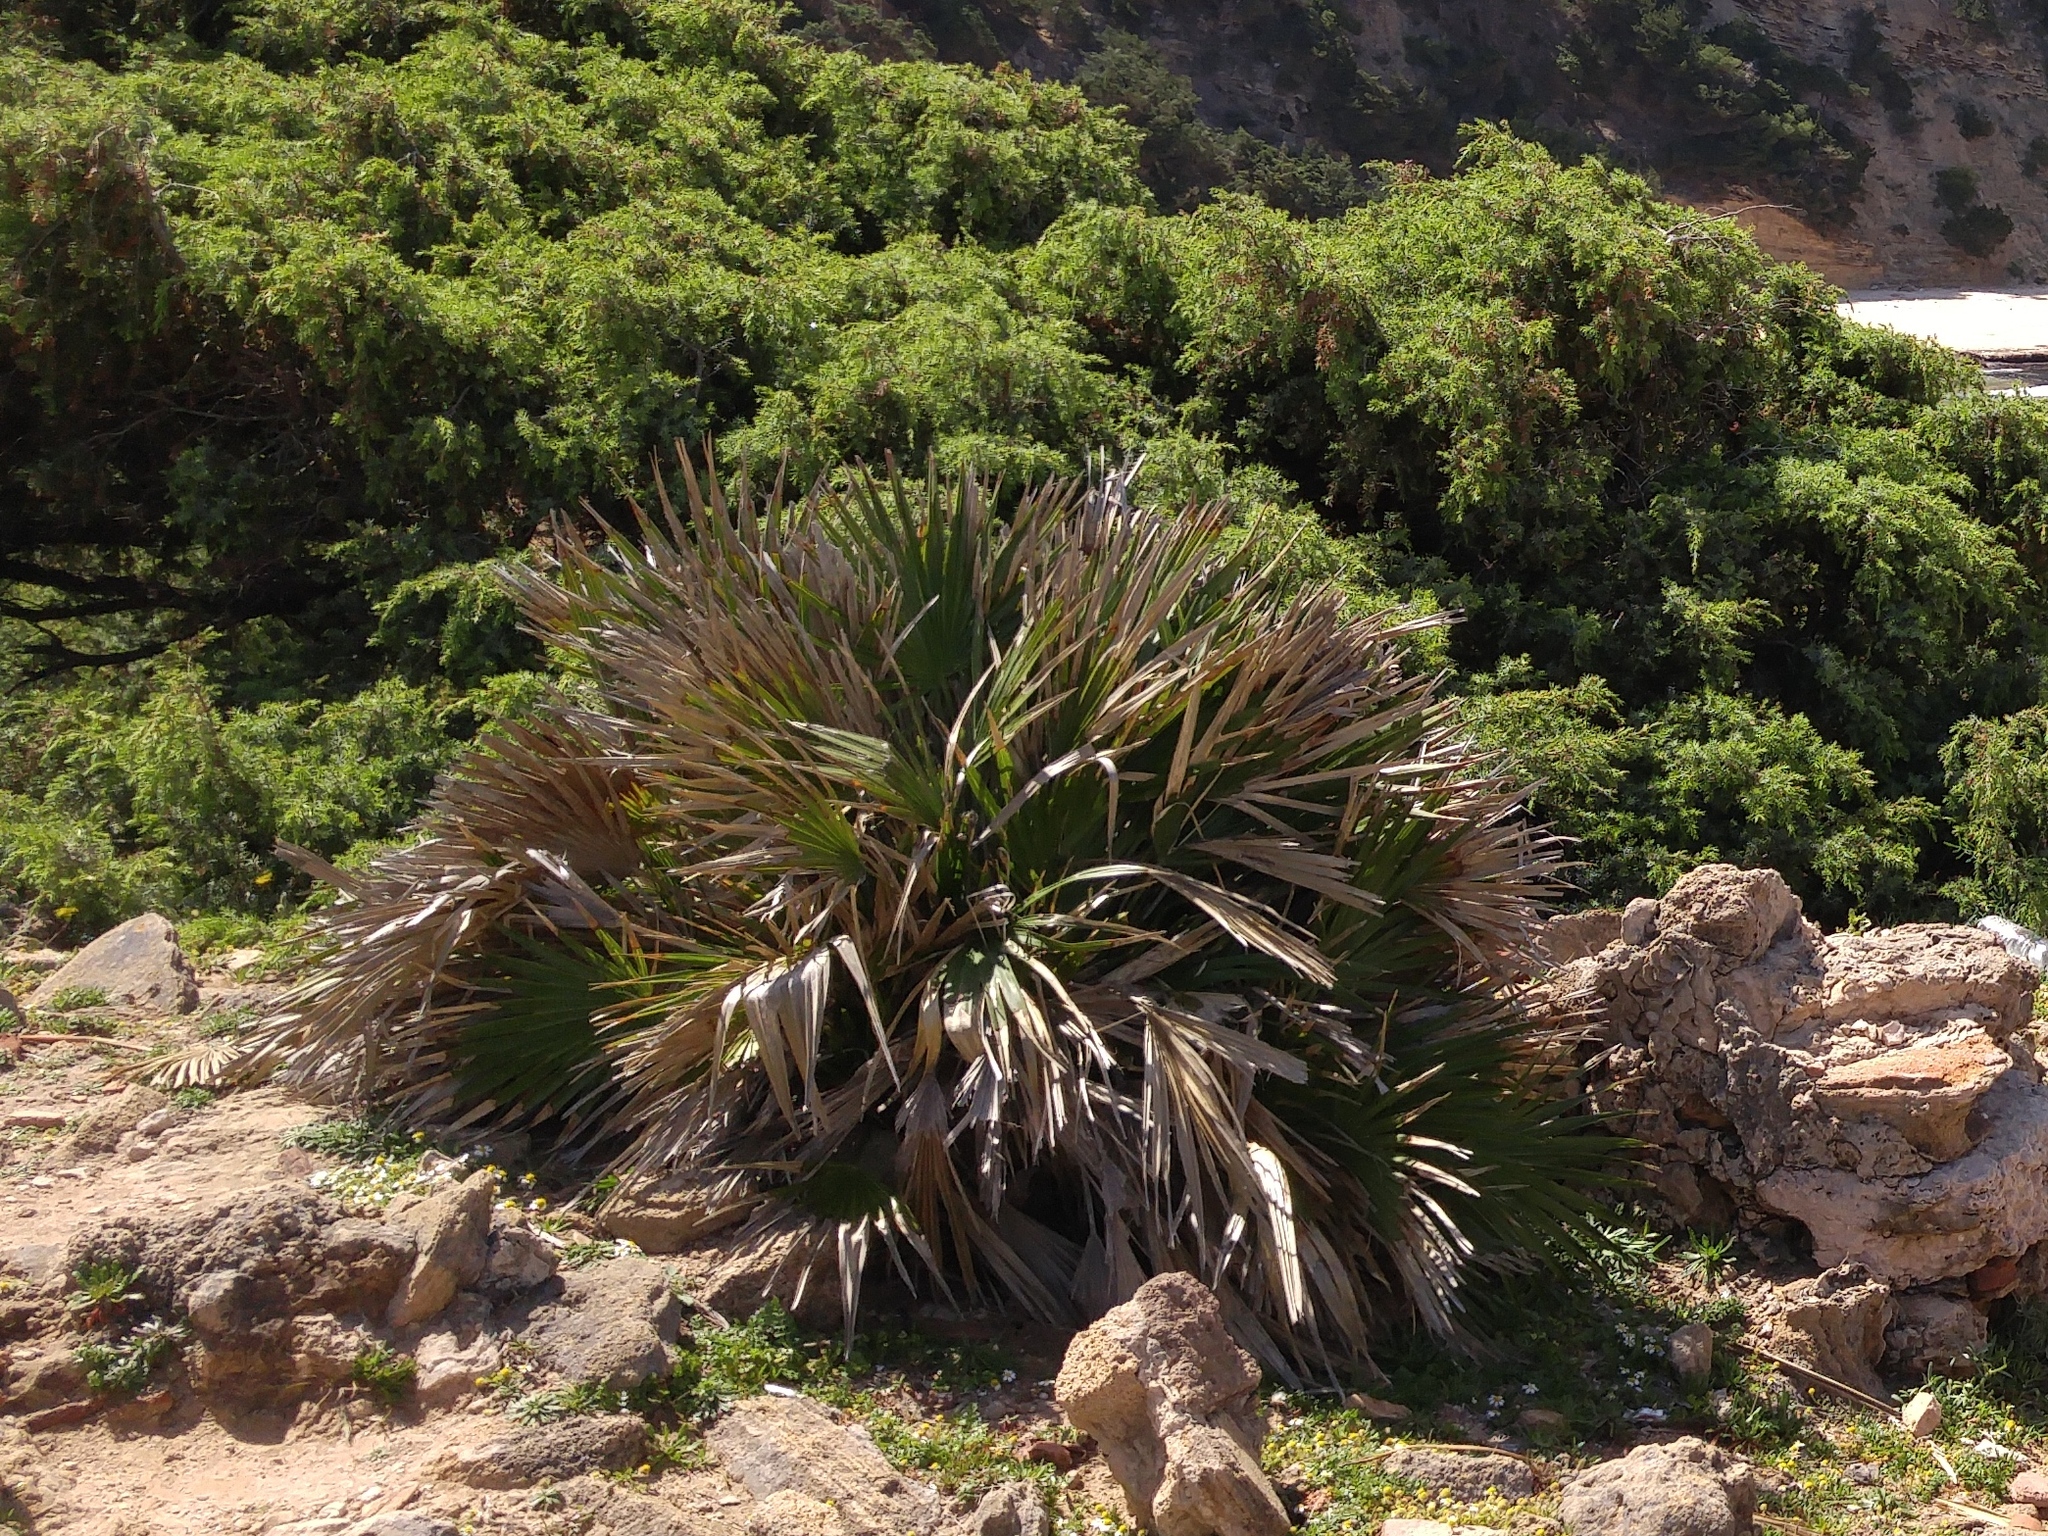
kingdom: Plantae
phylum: Tracheophyta
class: Liliopsida
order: Arecales
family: Arecaceae
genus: Chamaerops
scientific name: Chamaerops humilis
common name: Dwarf fan palm
